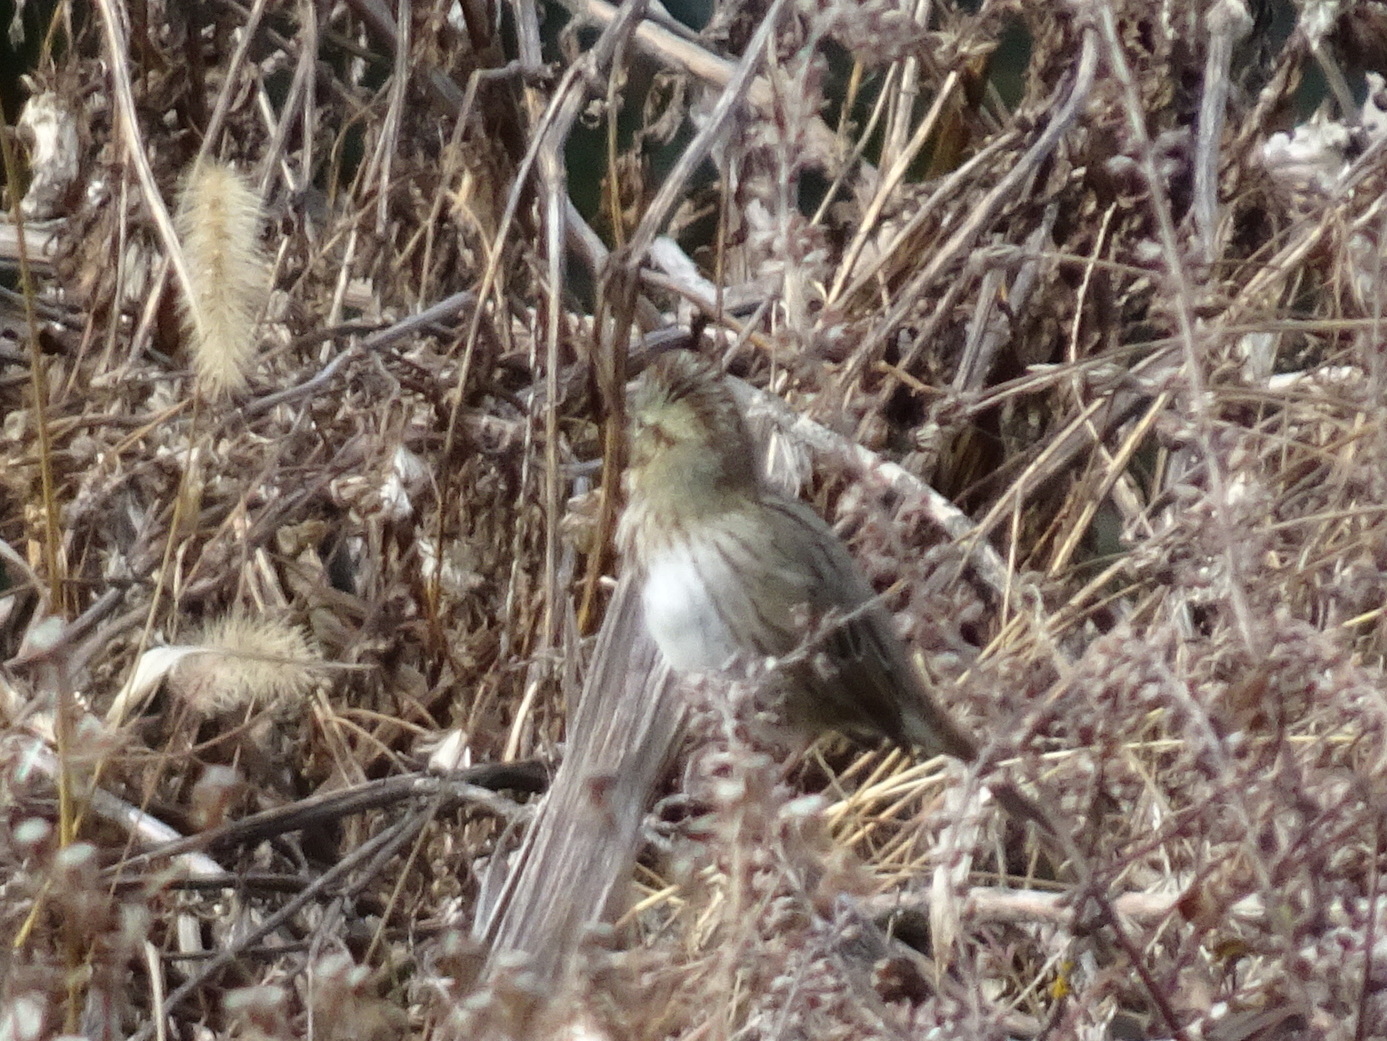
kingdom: Animalia
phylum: Chordata
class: Aves
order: Passeriformes
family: Passerellidae
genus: Melospiza
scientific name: Melospiza lincolnii
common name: Lincoln's sparrow
